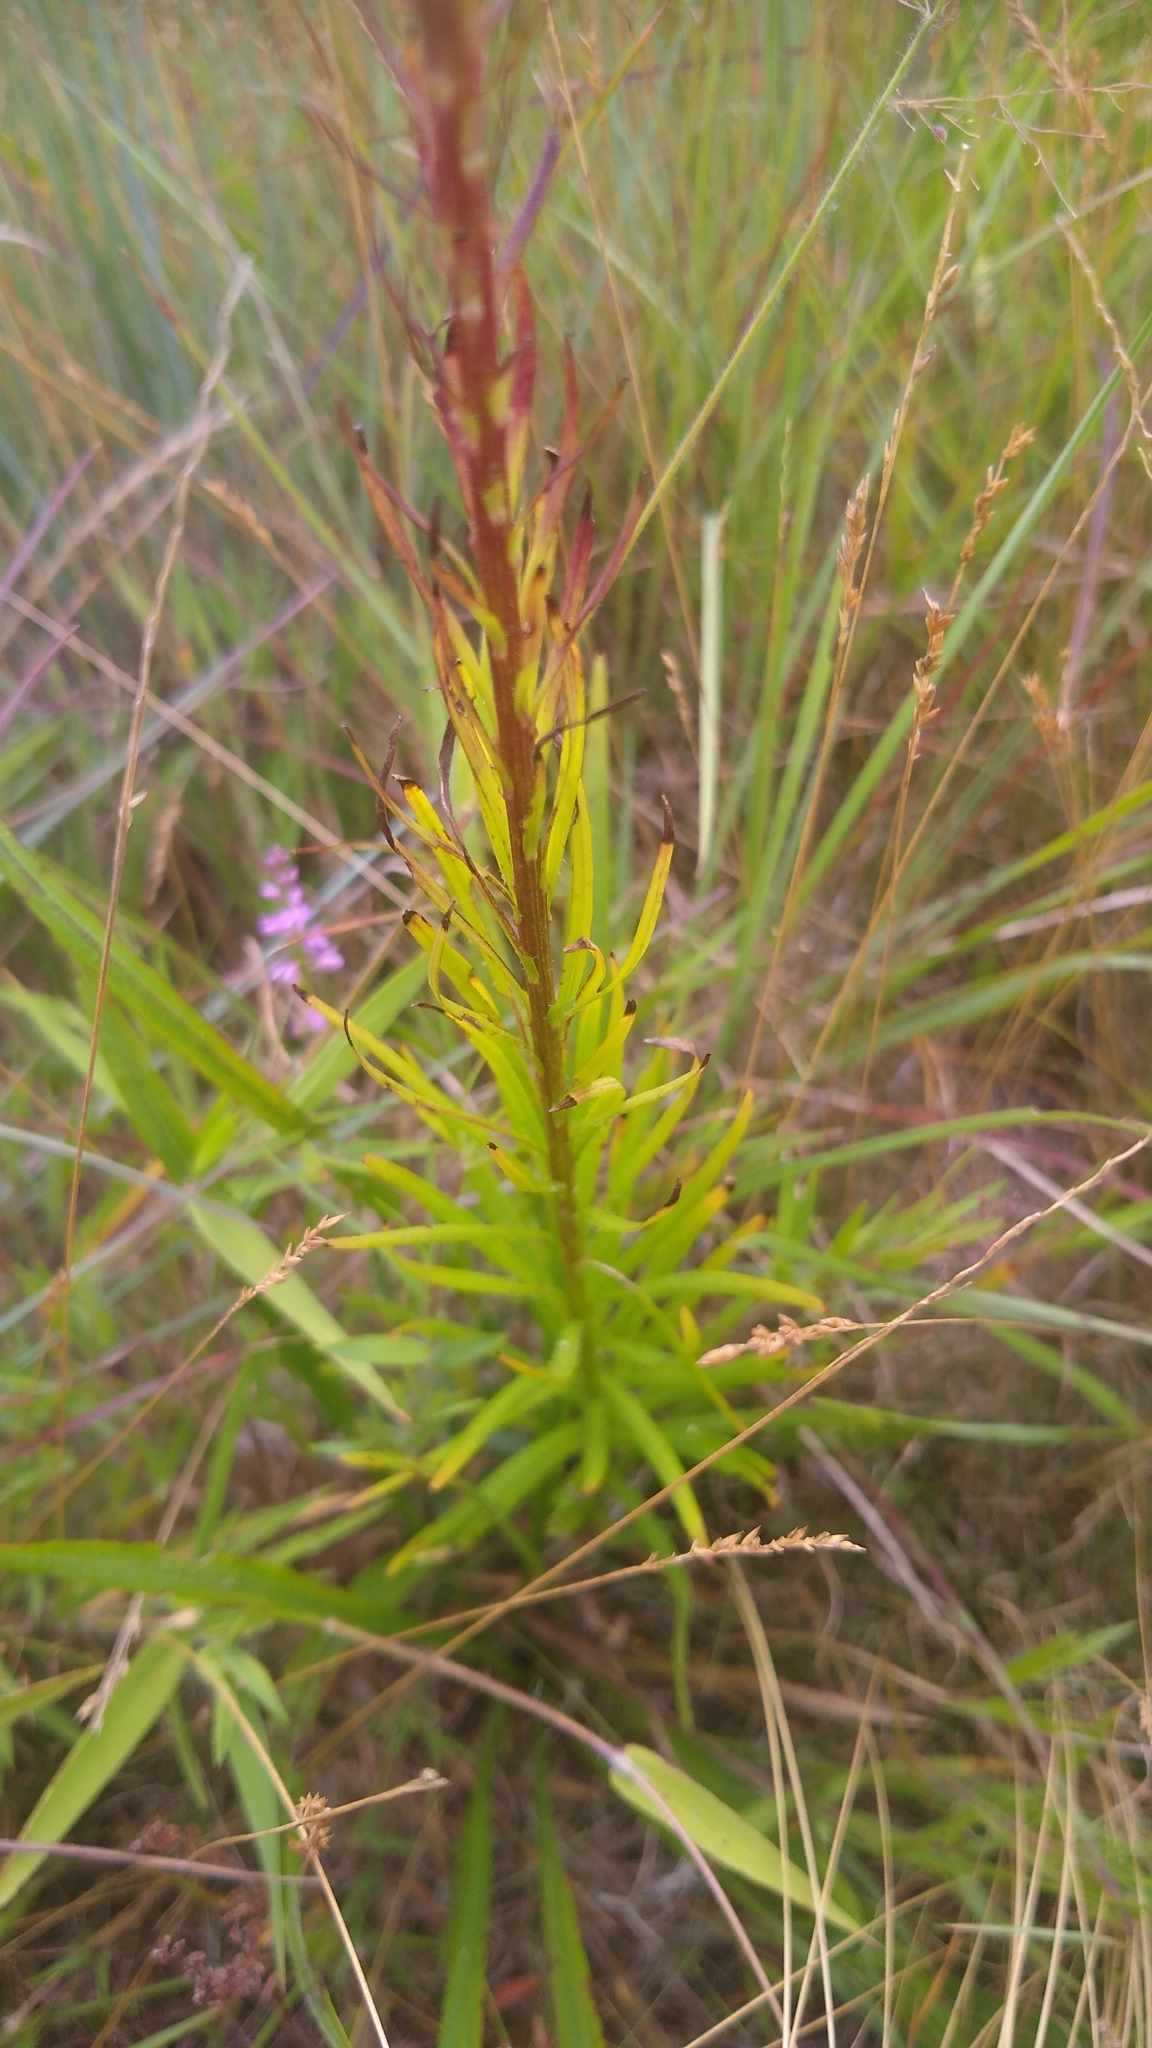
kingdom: Plantae
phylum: Tracheophyta
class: Magnoliopsida
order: Asterales
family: Asteraceae
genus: Liatris
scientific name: Liatris spicata
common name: Florist gayfeather
